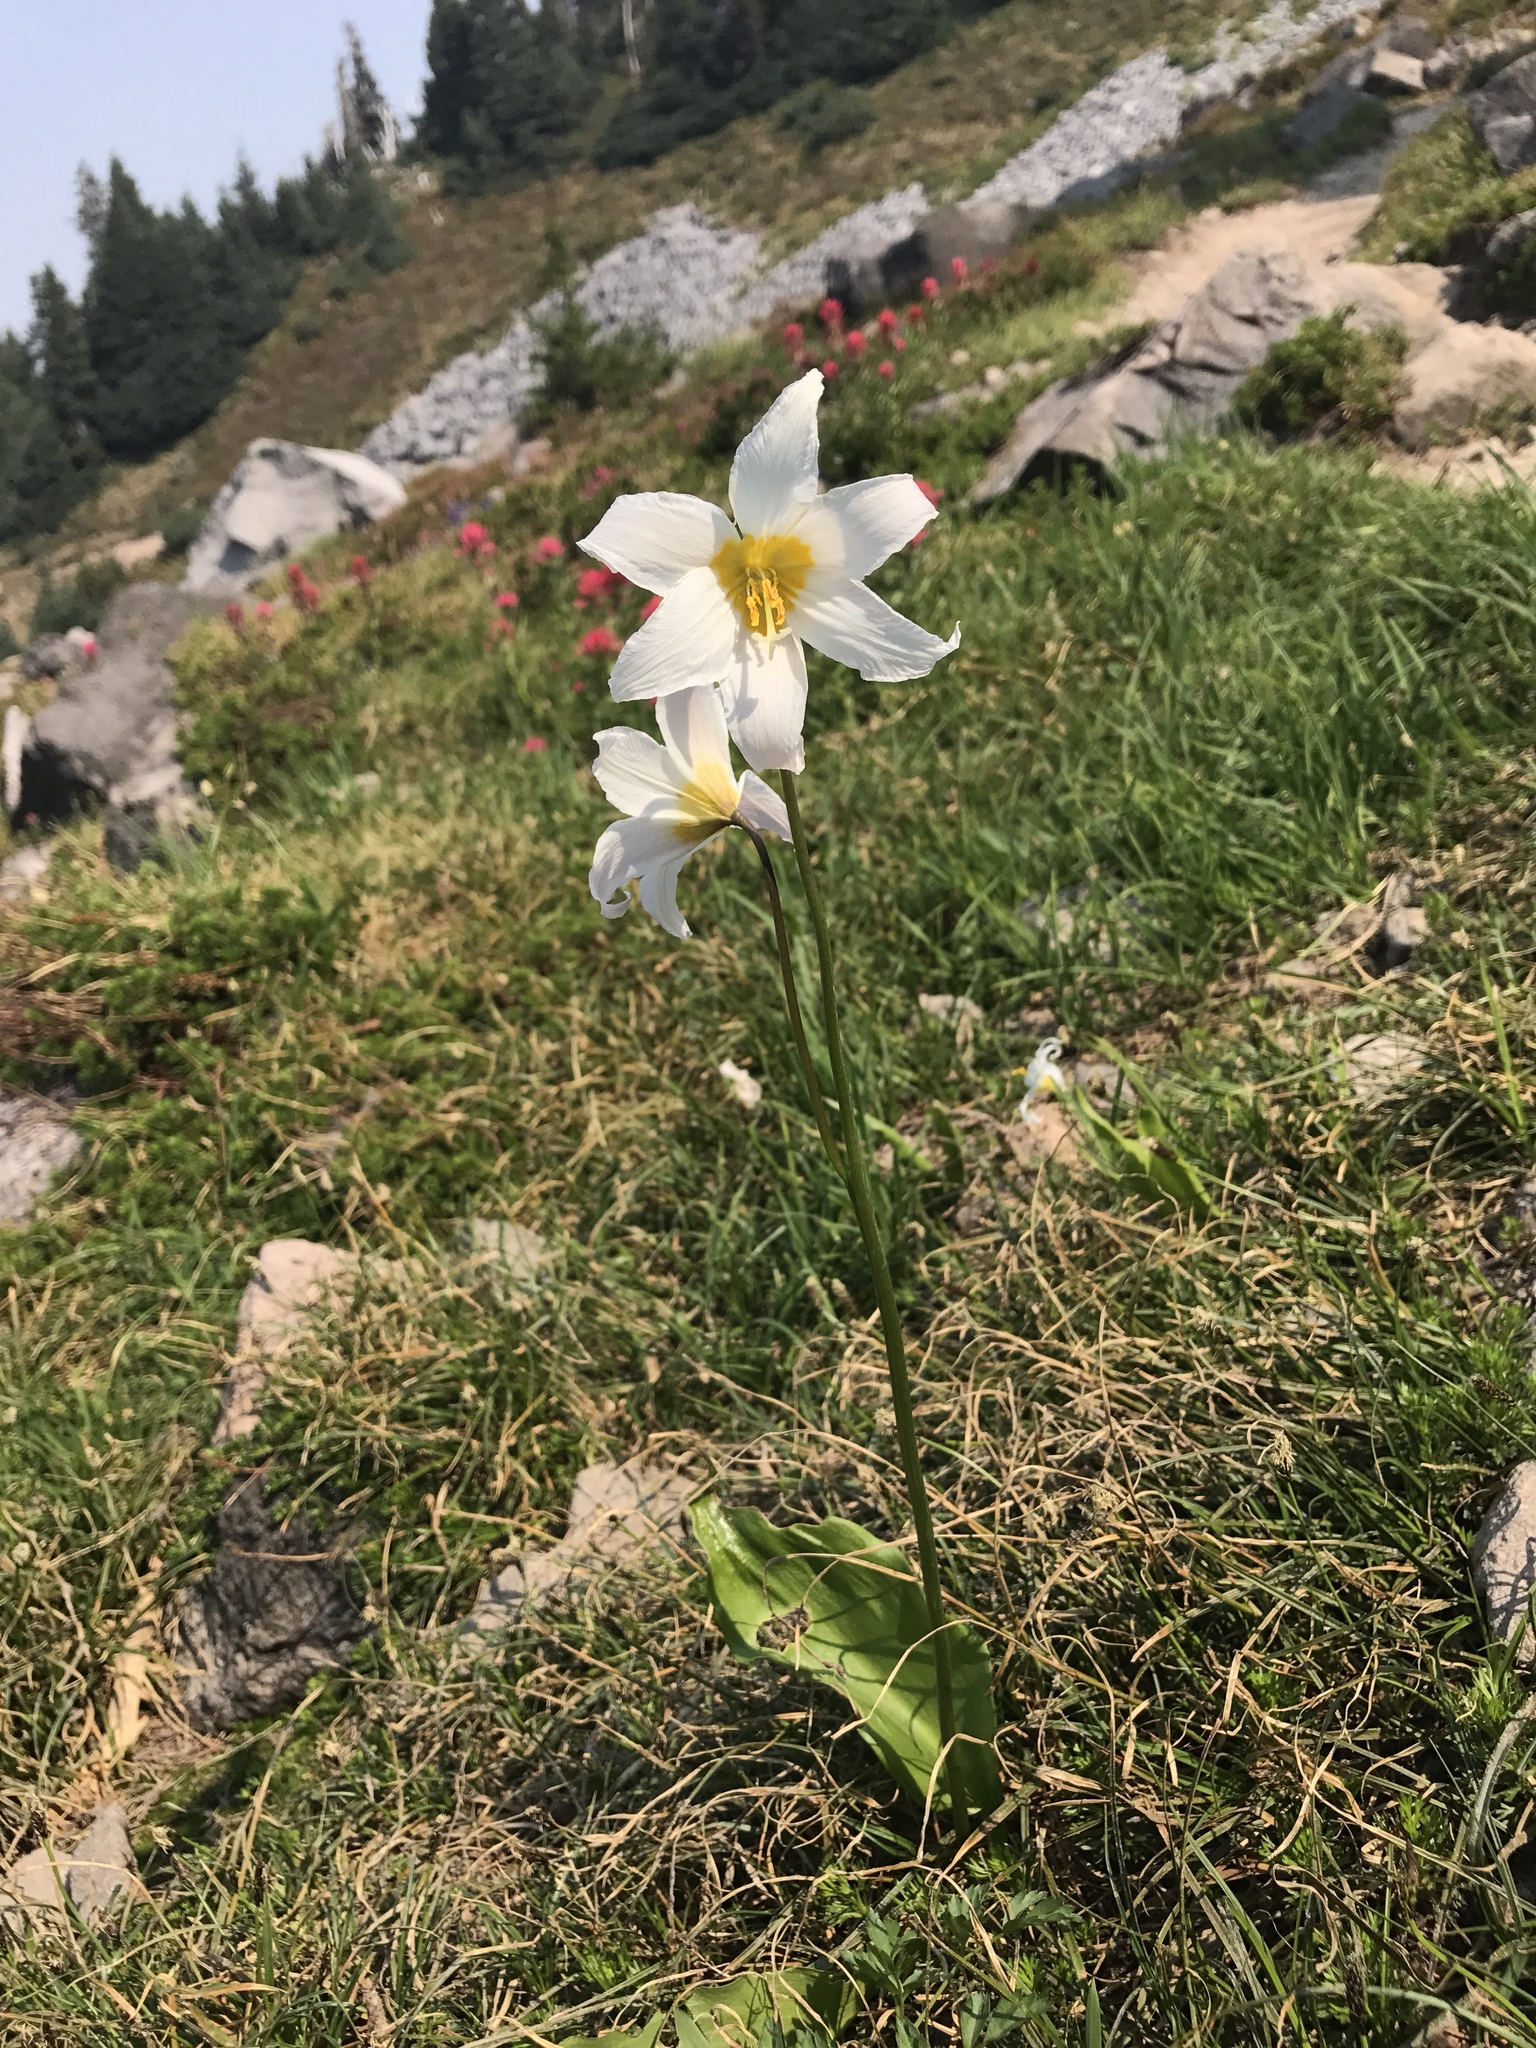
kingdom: Plantae
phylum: Tracheophyta
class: Liliopsida
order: Liliales
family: Liliaceae
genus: Erythronium
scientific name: Erythronium montanum
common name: Avalanche lily
